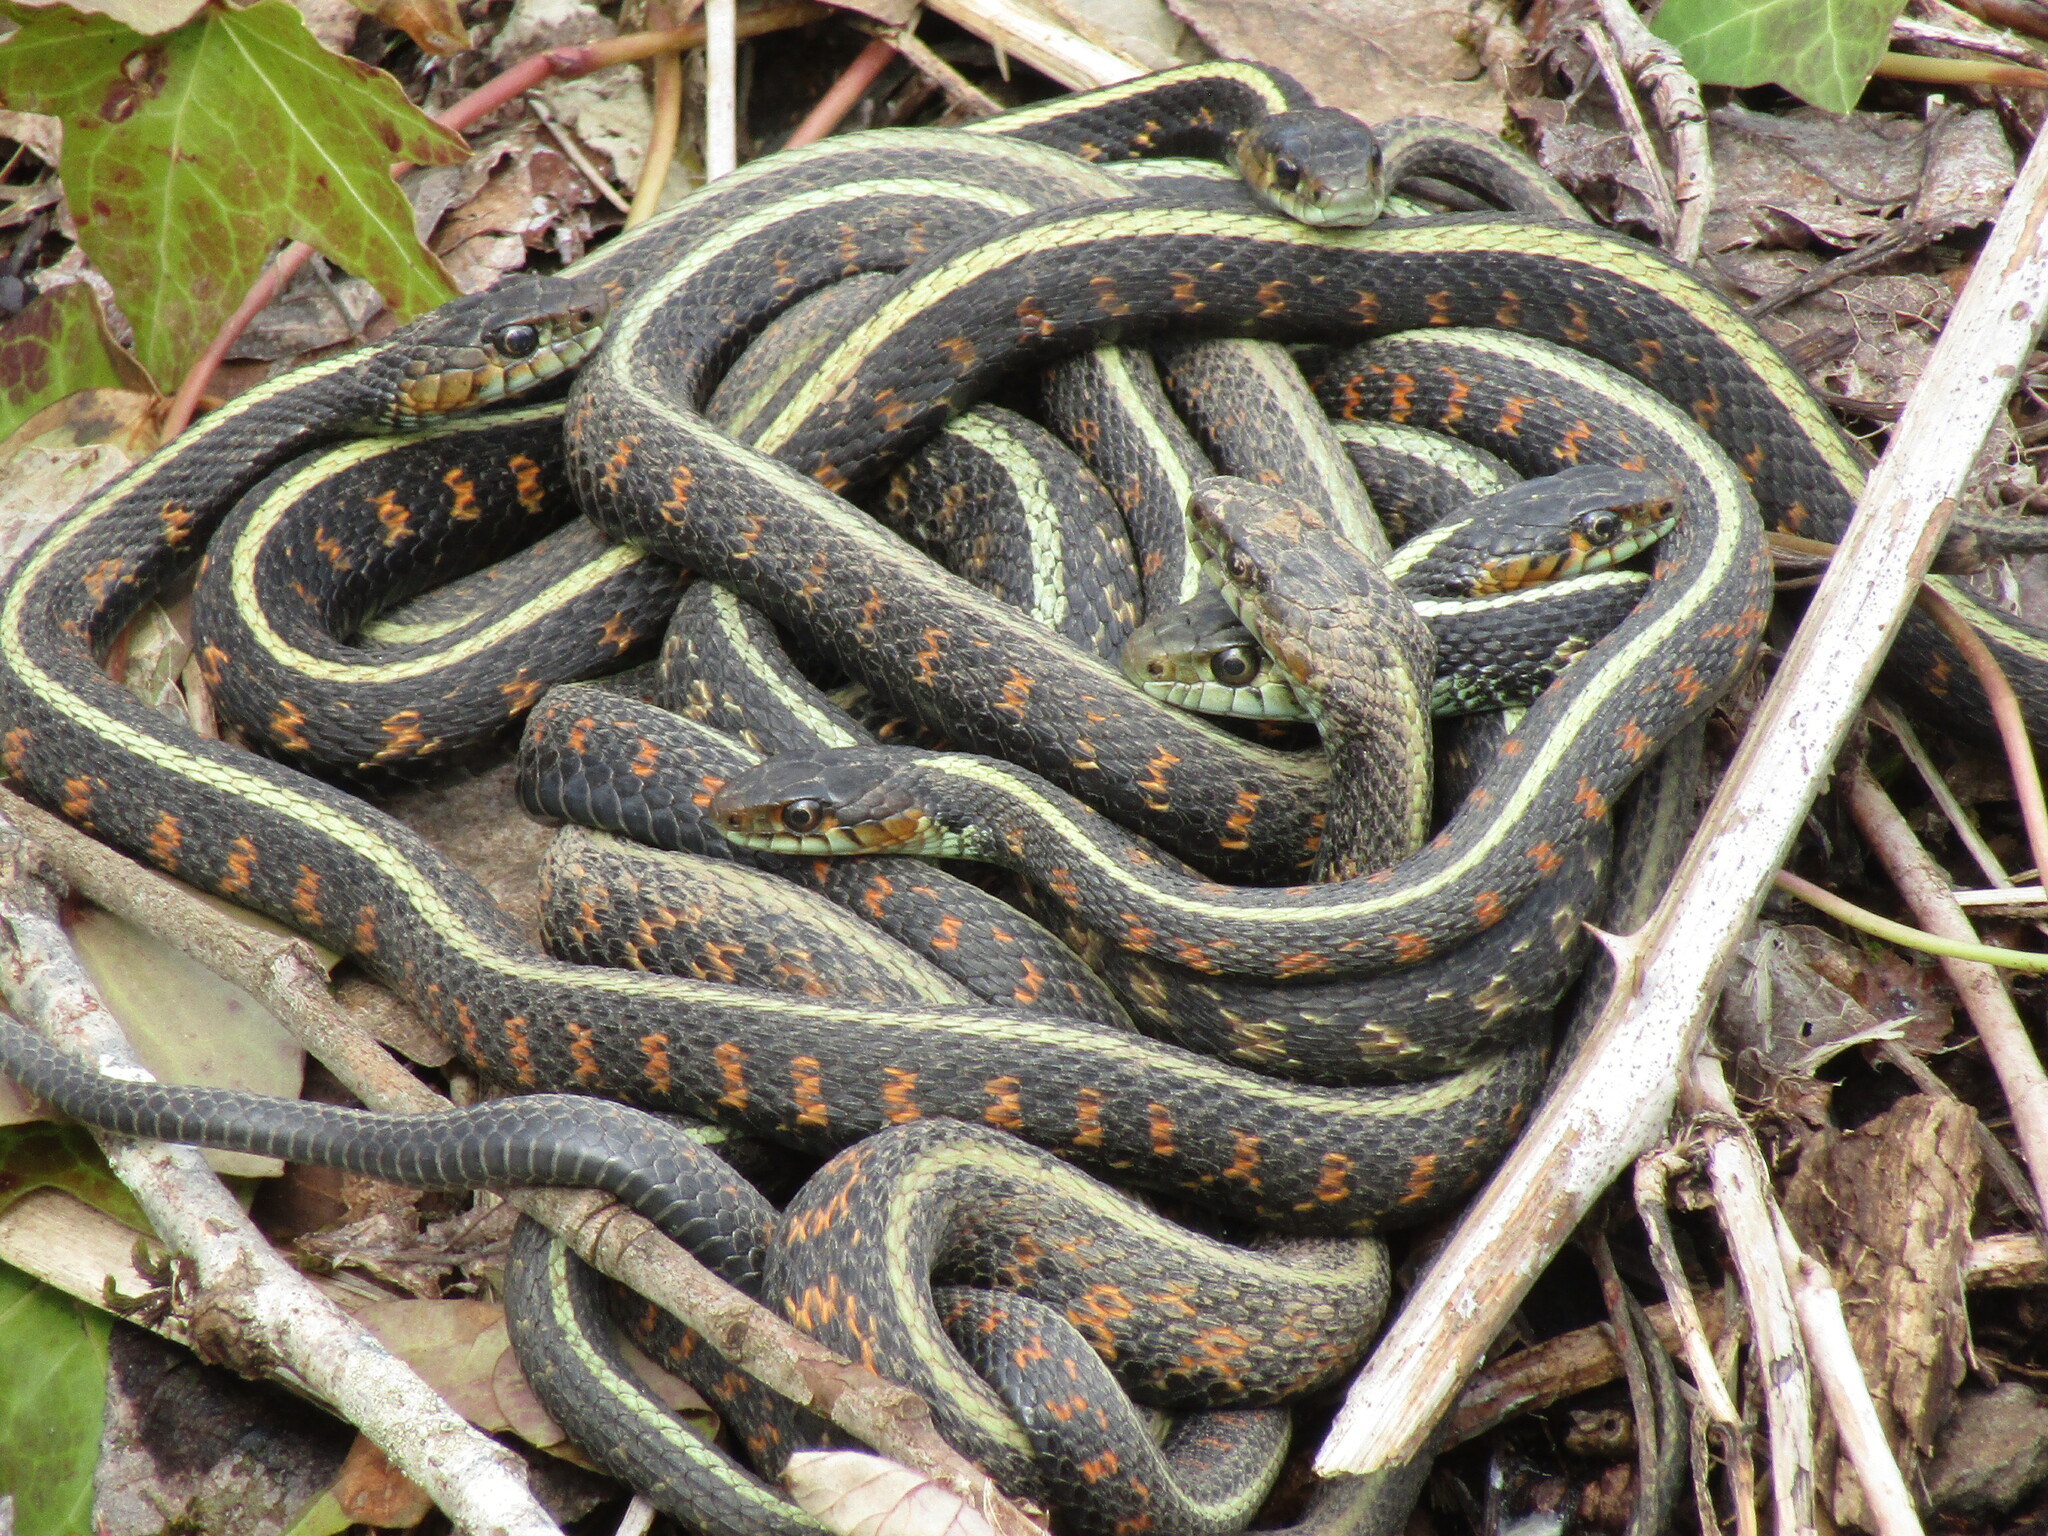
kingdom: Animalia
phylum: Chordata
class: Squamata
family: Colubridae
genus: Thamnophis
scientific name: Thamnophis sirtalis
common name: Common garter snake
